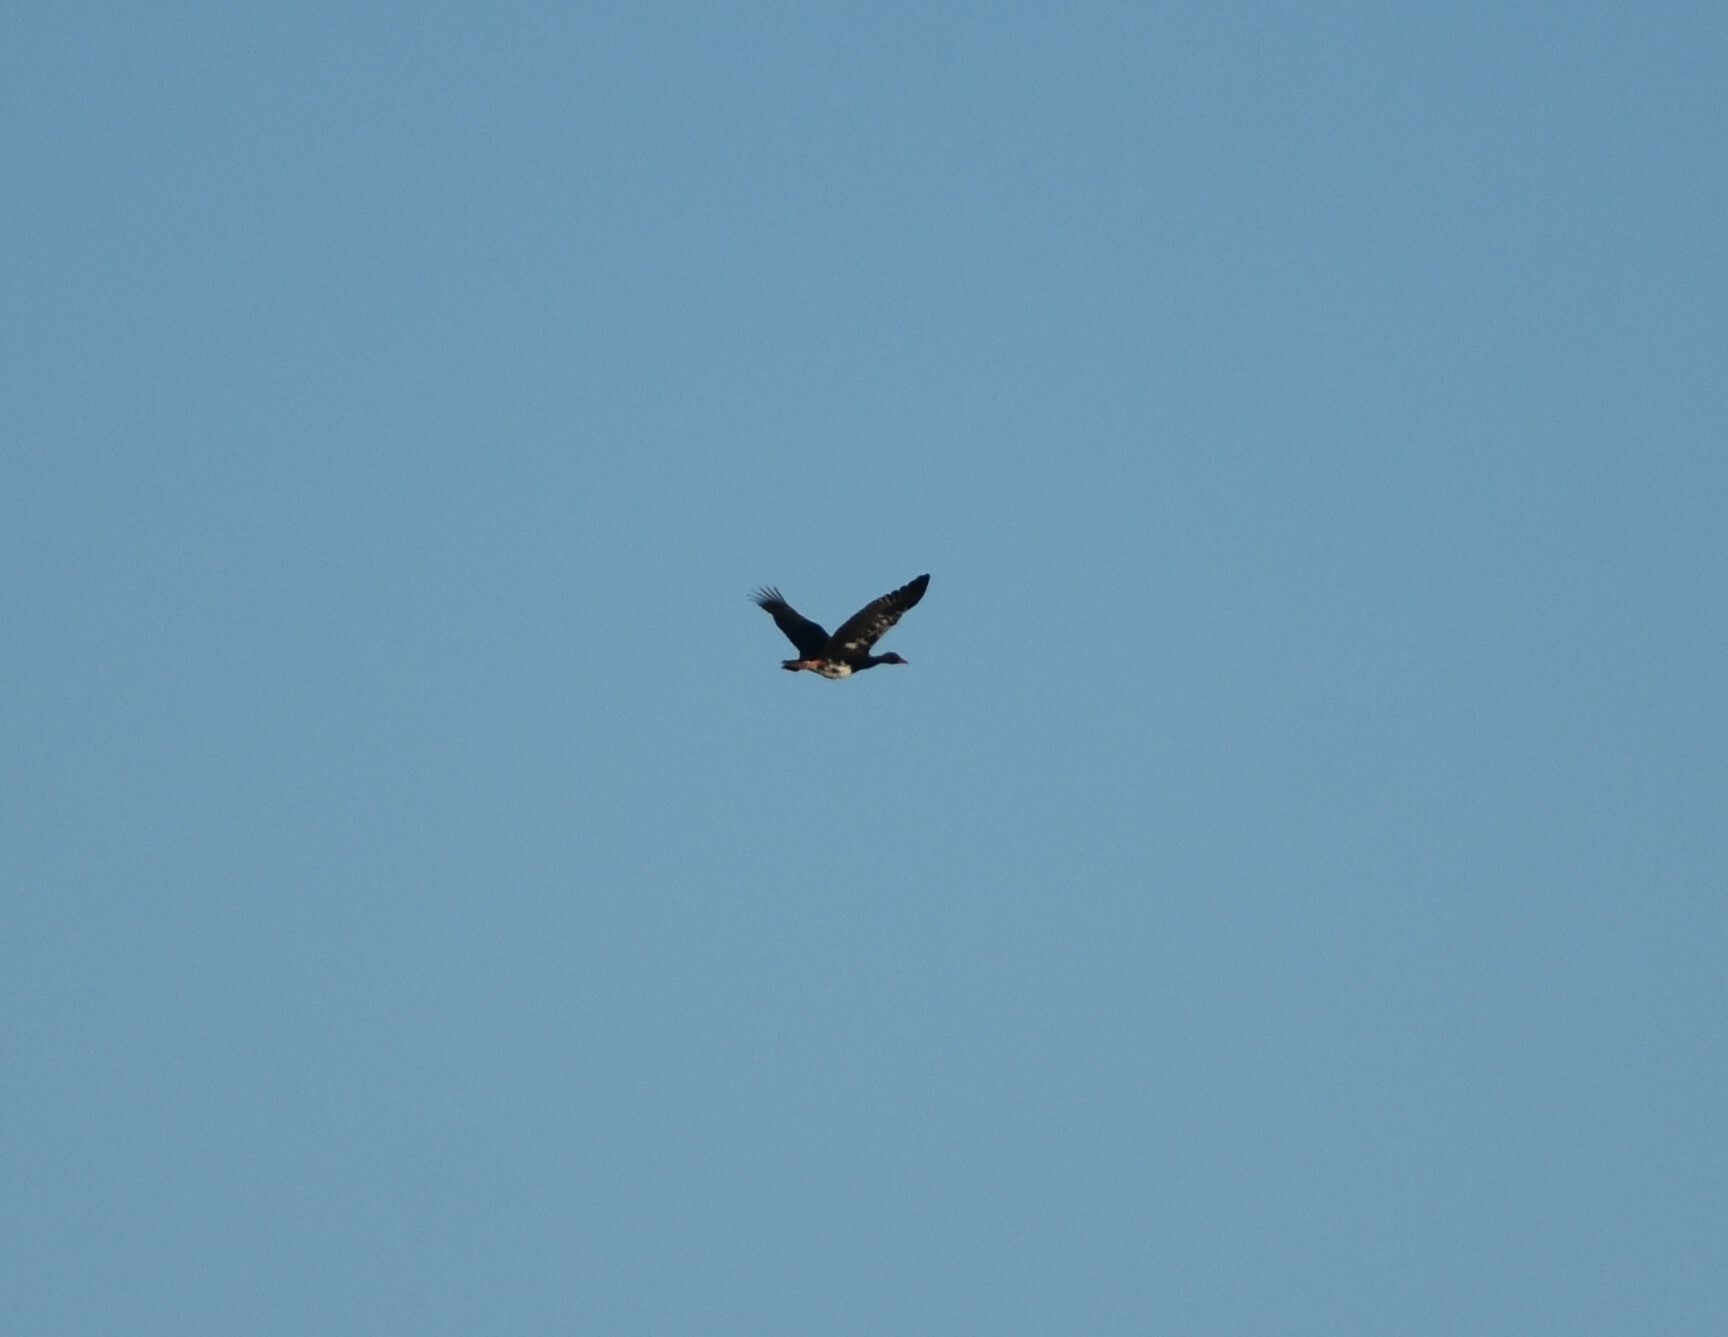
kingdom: Animalia
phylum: Chordata
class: Aves
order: Anseriformes
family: Anatidae
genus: Plectropterus
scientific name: Plectropterus gambensis
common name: Spur-winged goose
